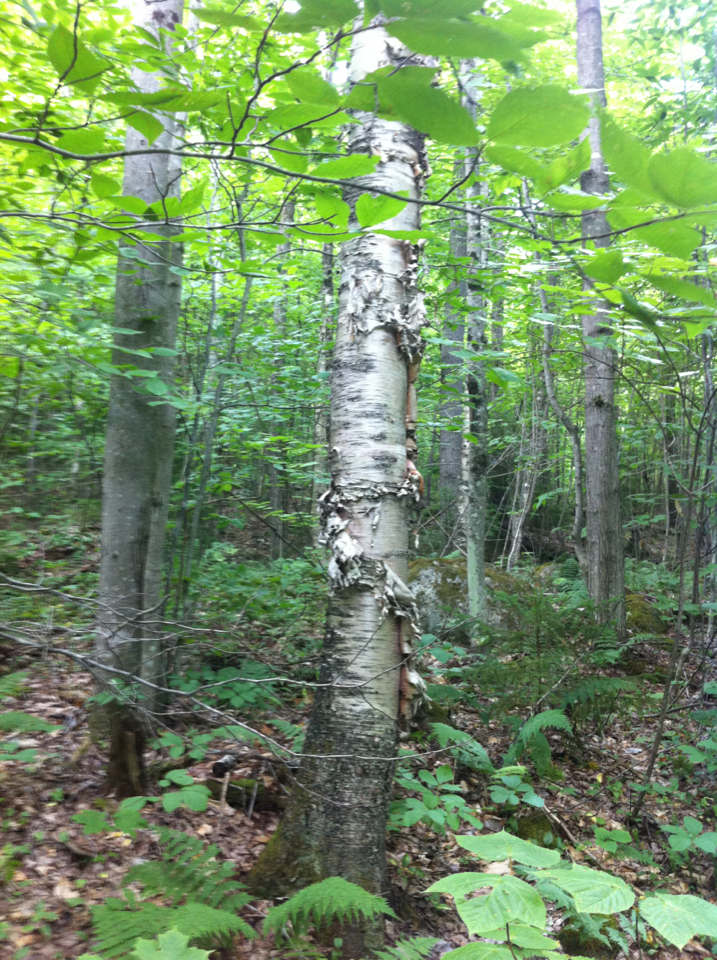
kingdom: Plantae
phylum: Tracheophyta
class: Magnoliopsida
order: Fagales
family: Betulaceae
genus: Betula
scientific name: Betula papyrifera
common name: Paper birch
